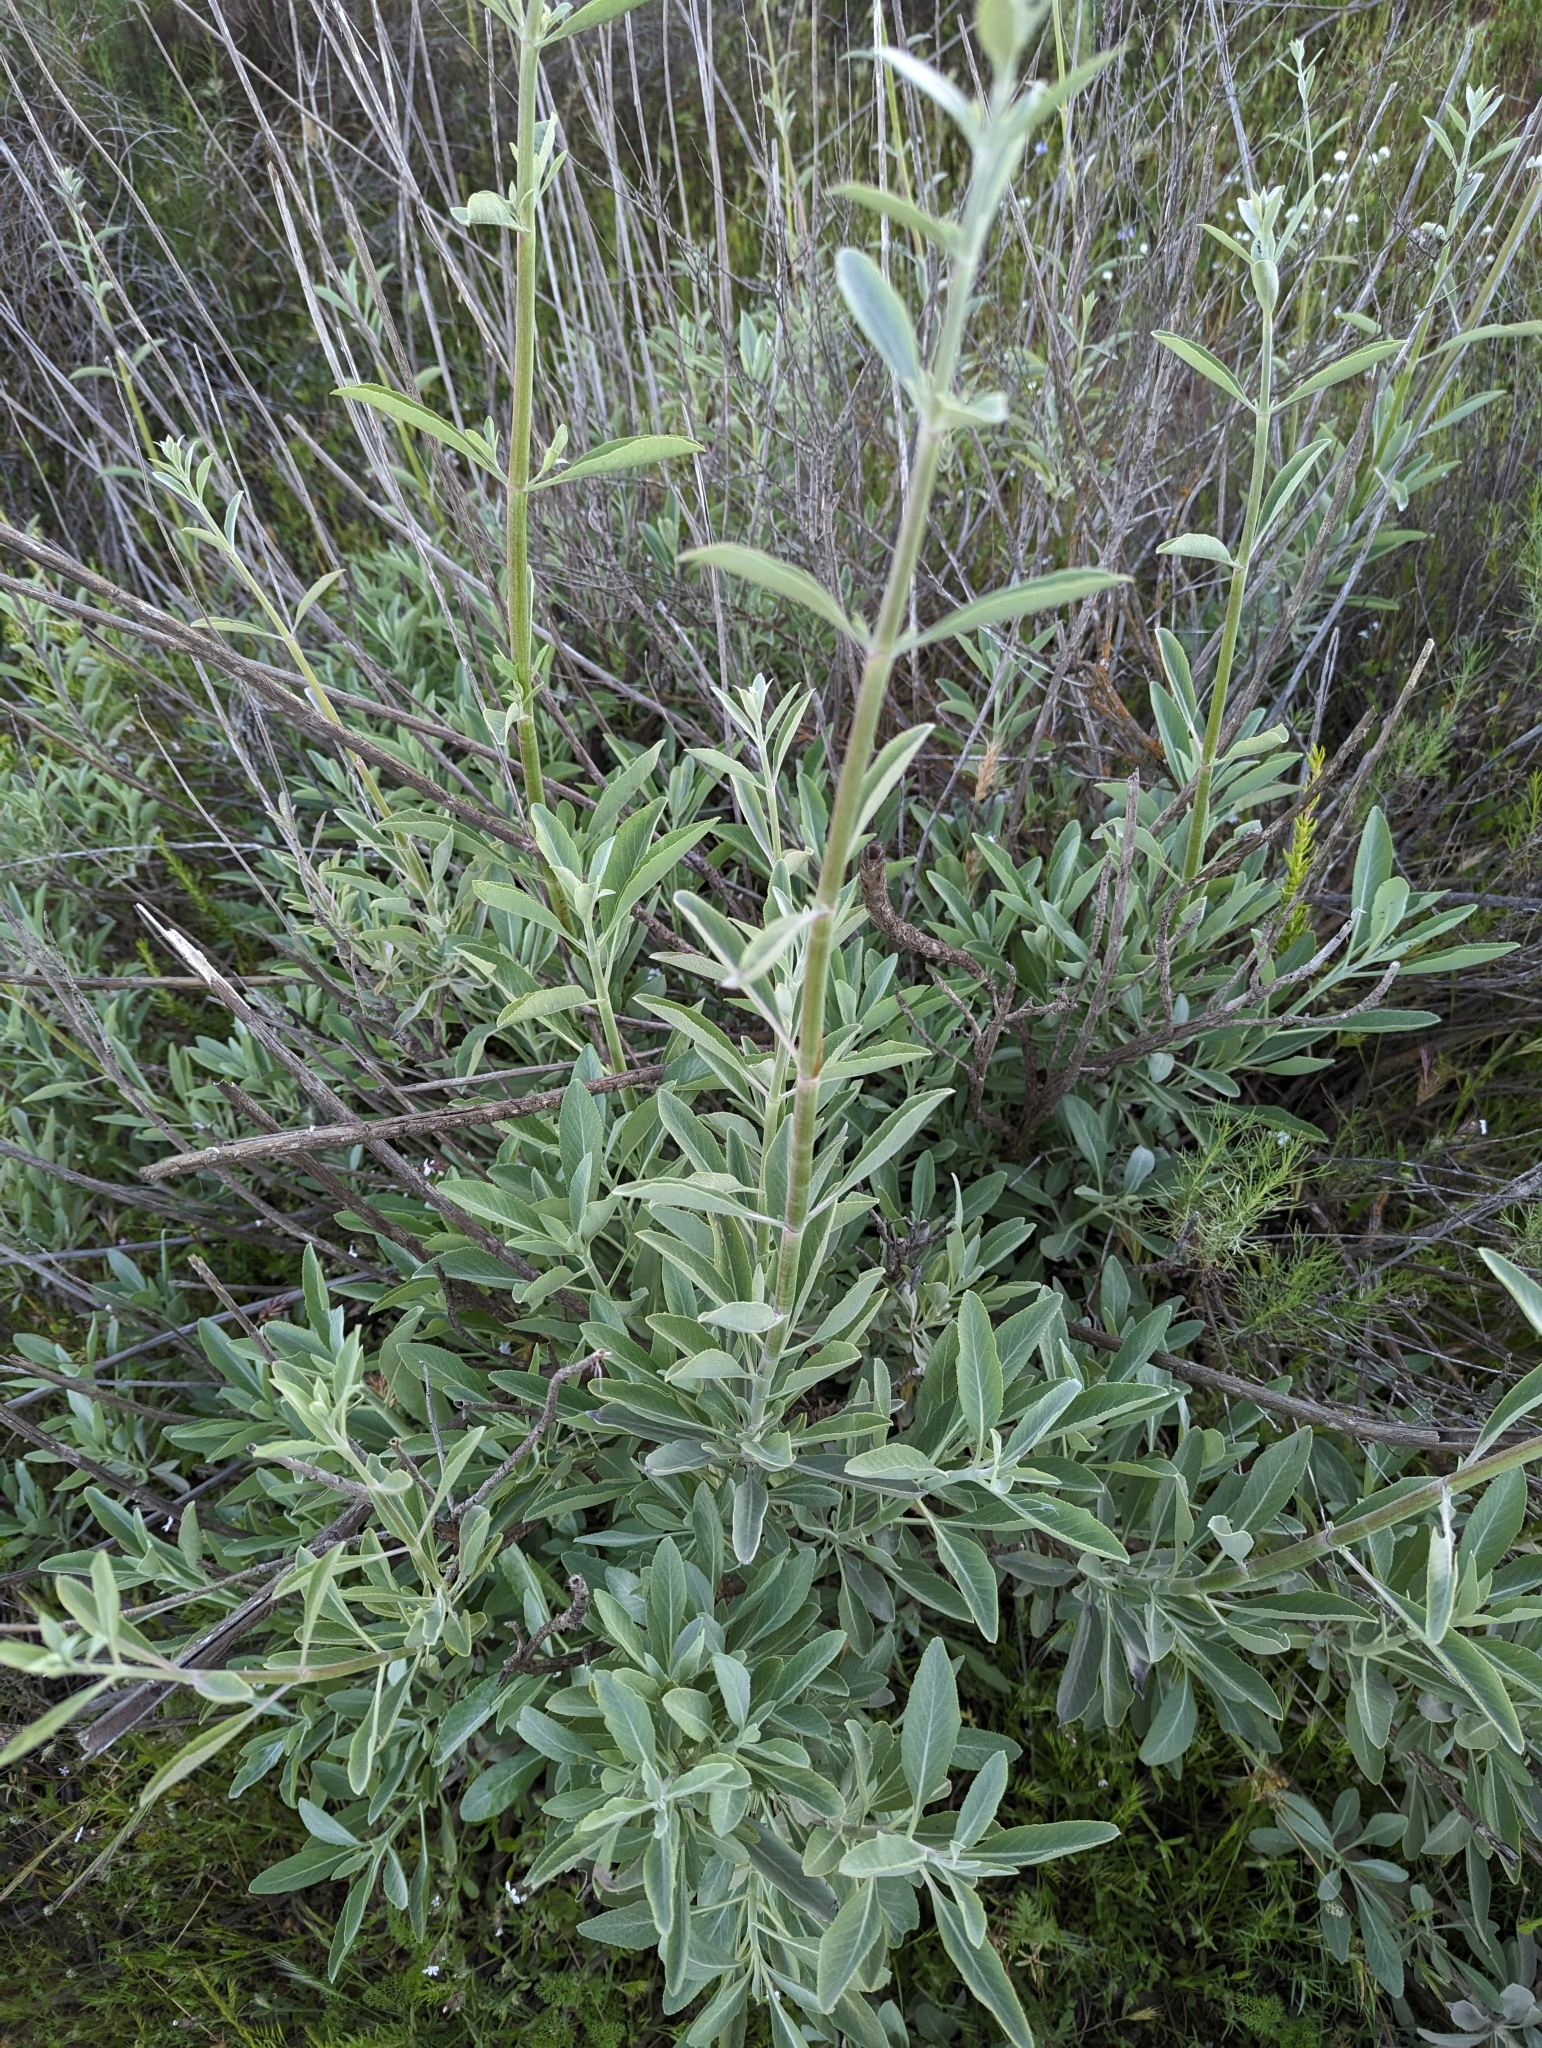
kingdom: Plantae
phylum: Tracheophyta
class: Magnoliopsida
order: Lamiales
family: Lamiaceae
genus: Salvia
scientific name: Salvia apiana
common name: White sage
